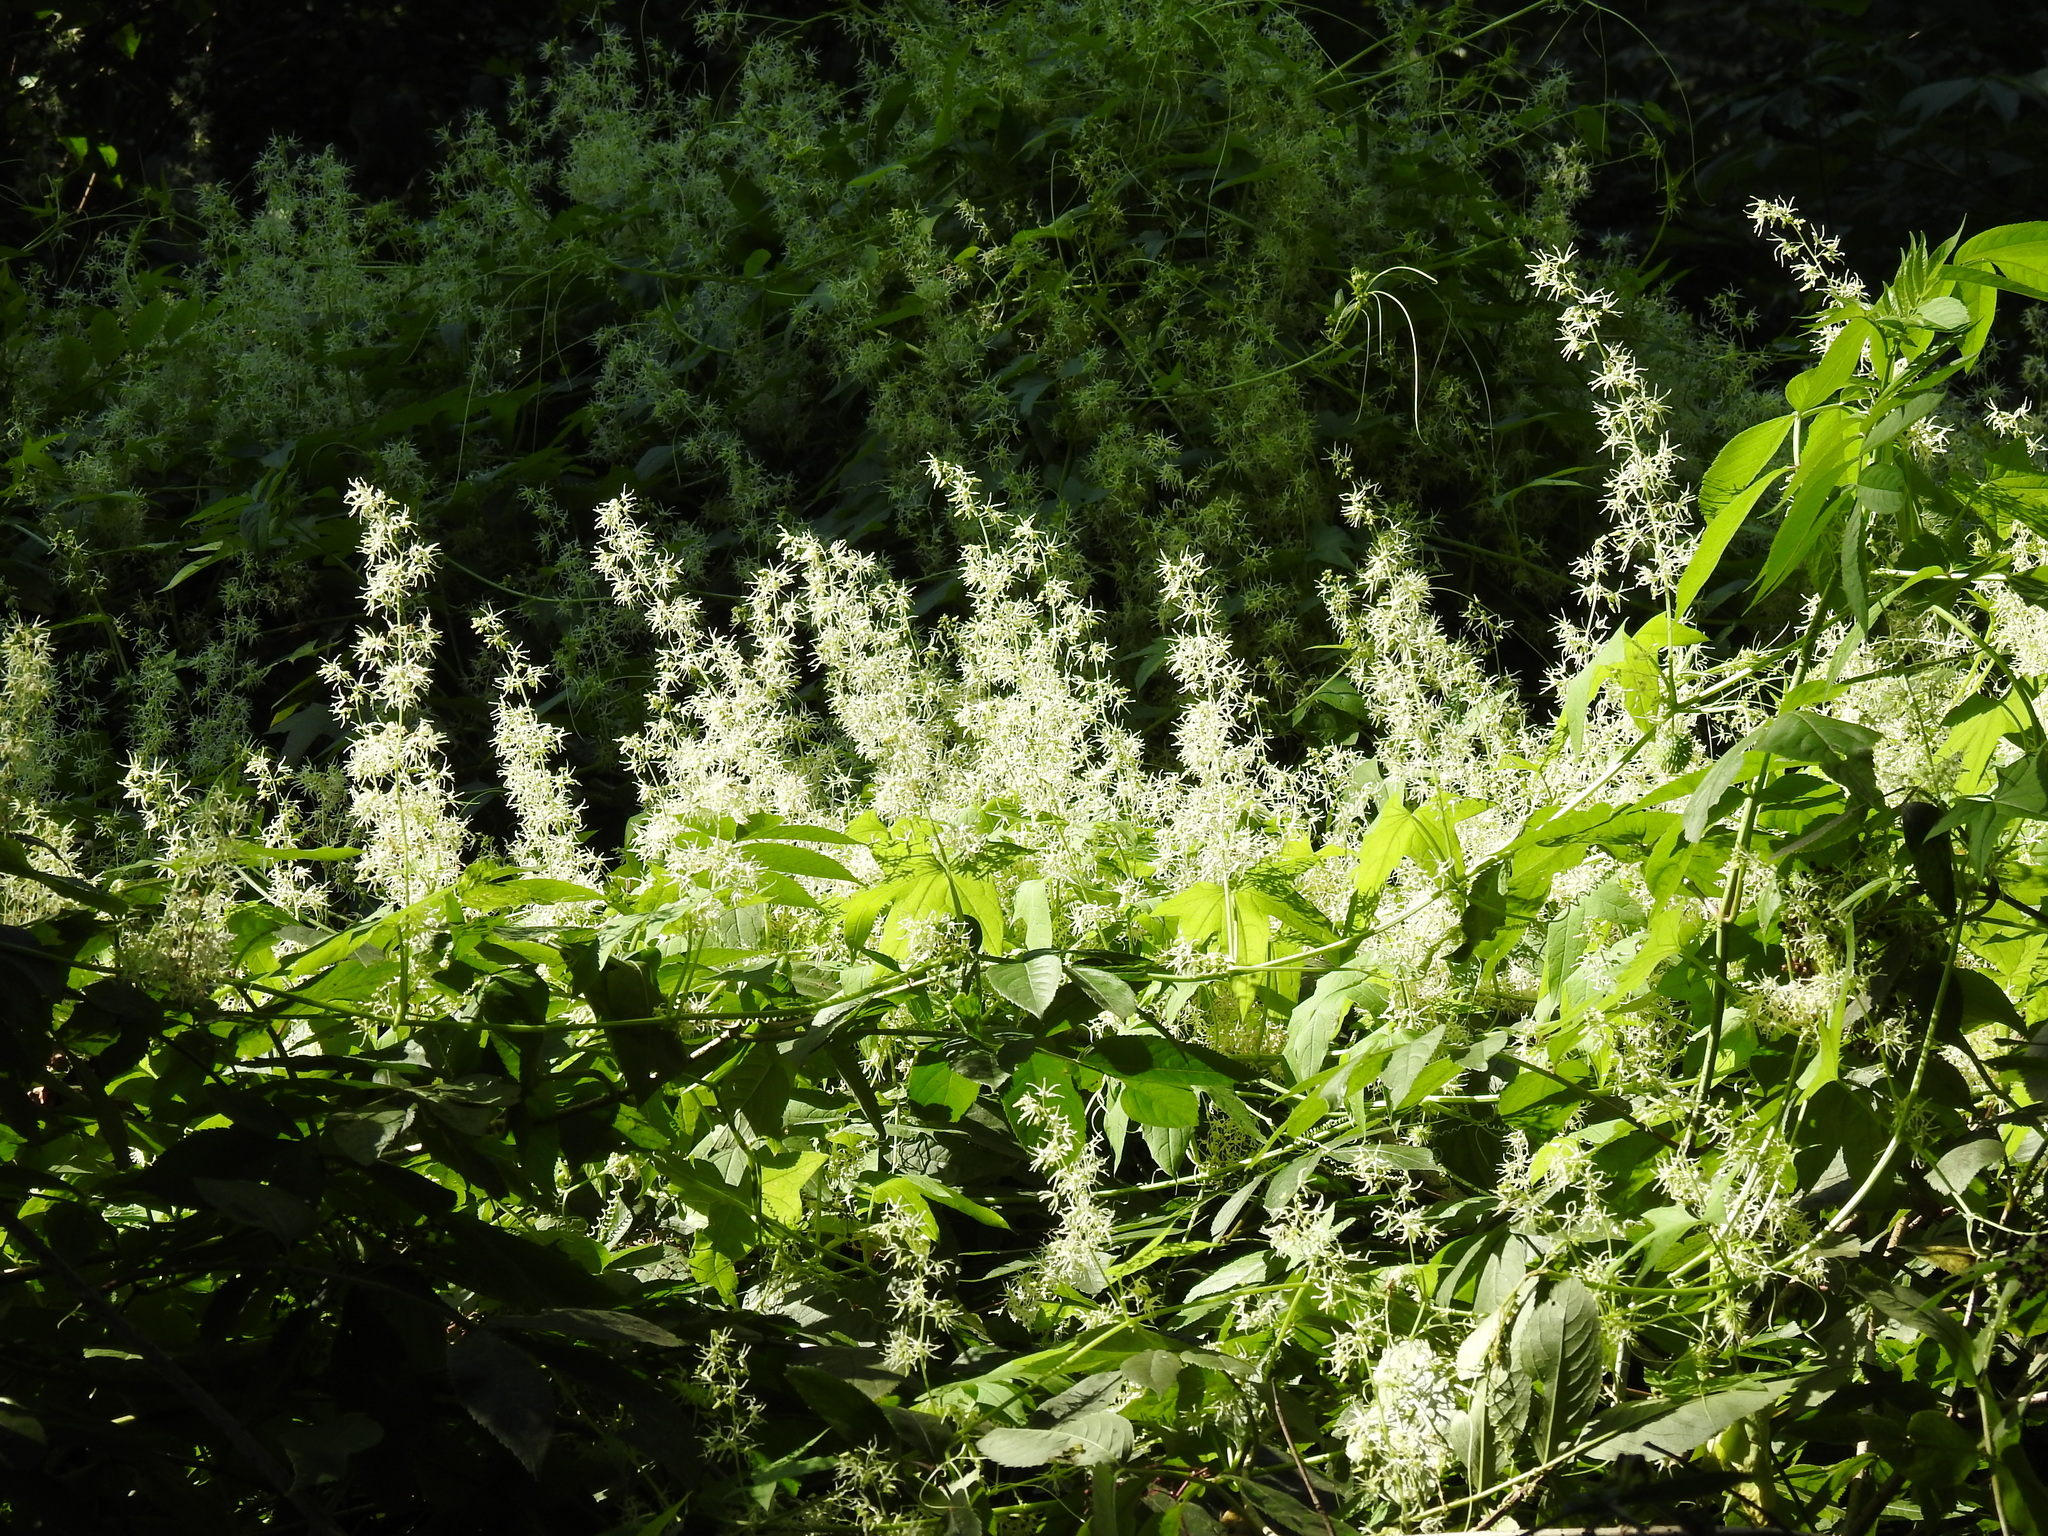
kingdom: Plantae
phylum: Tracheophyta
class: Magnoliopsida
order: Cucurbitales
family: Cucurbitaceae
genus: Echinocystis
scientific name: Echinocystis lobata
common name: Wild cucumber
